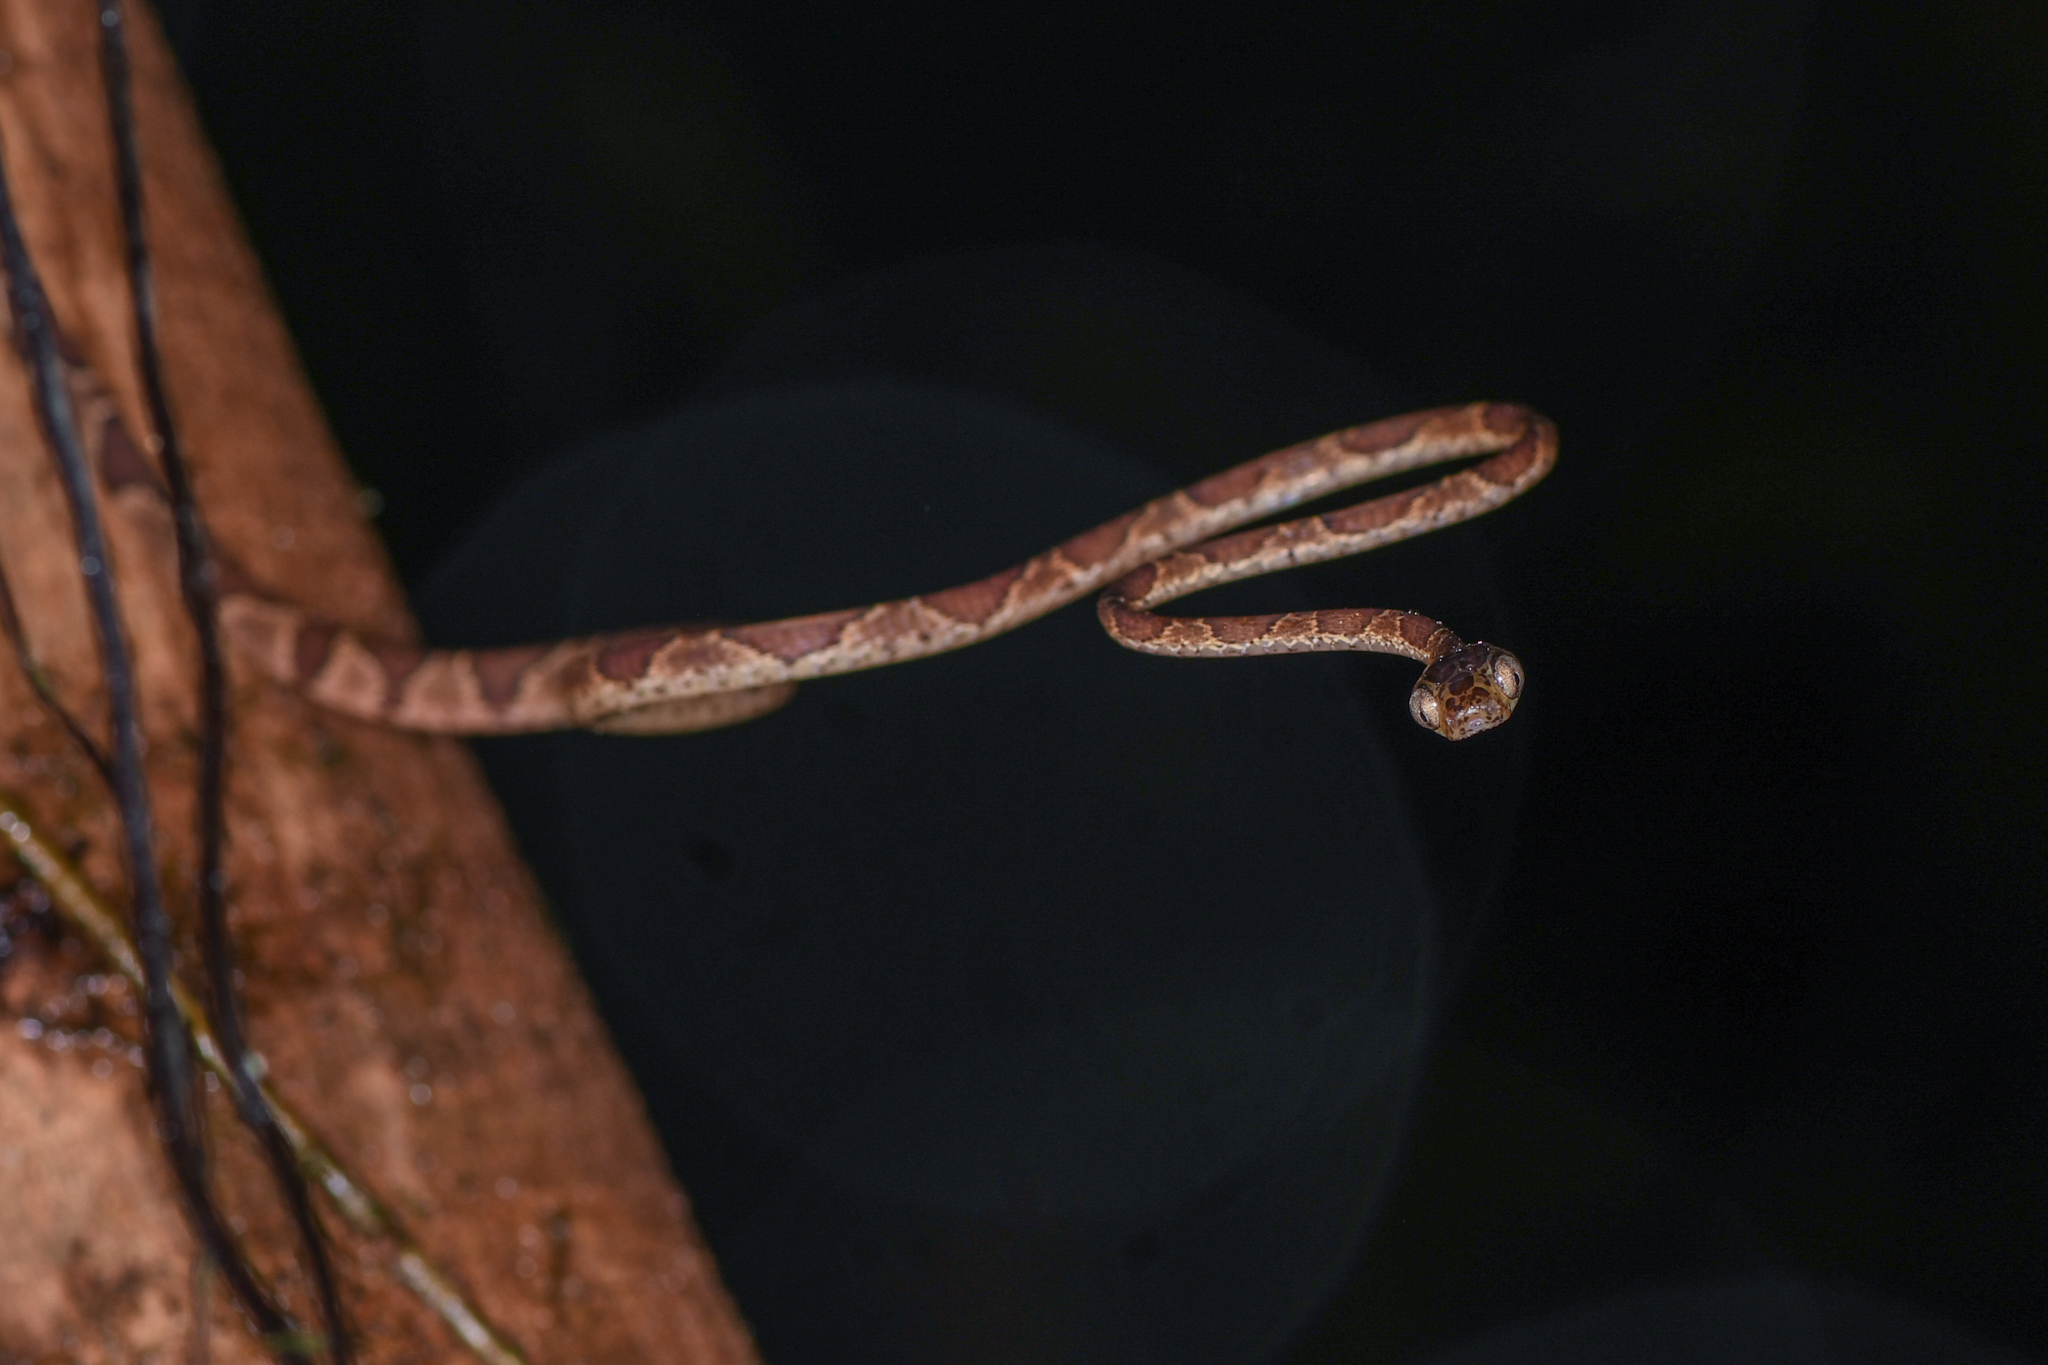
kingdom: Animalia
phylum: Chordata
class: Squamata
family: Colubridae
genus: Imantodes
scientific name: Imantodes cenchoa
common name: Blunthead tree snake
